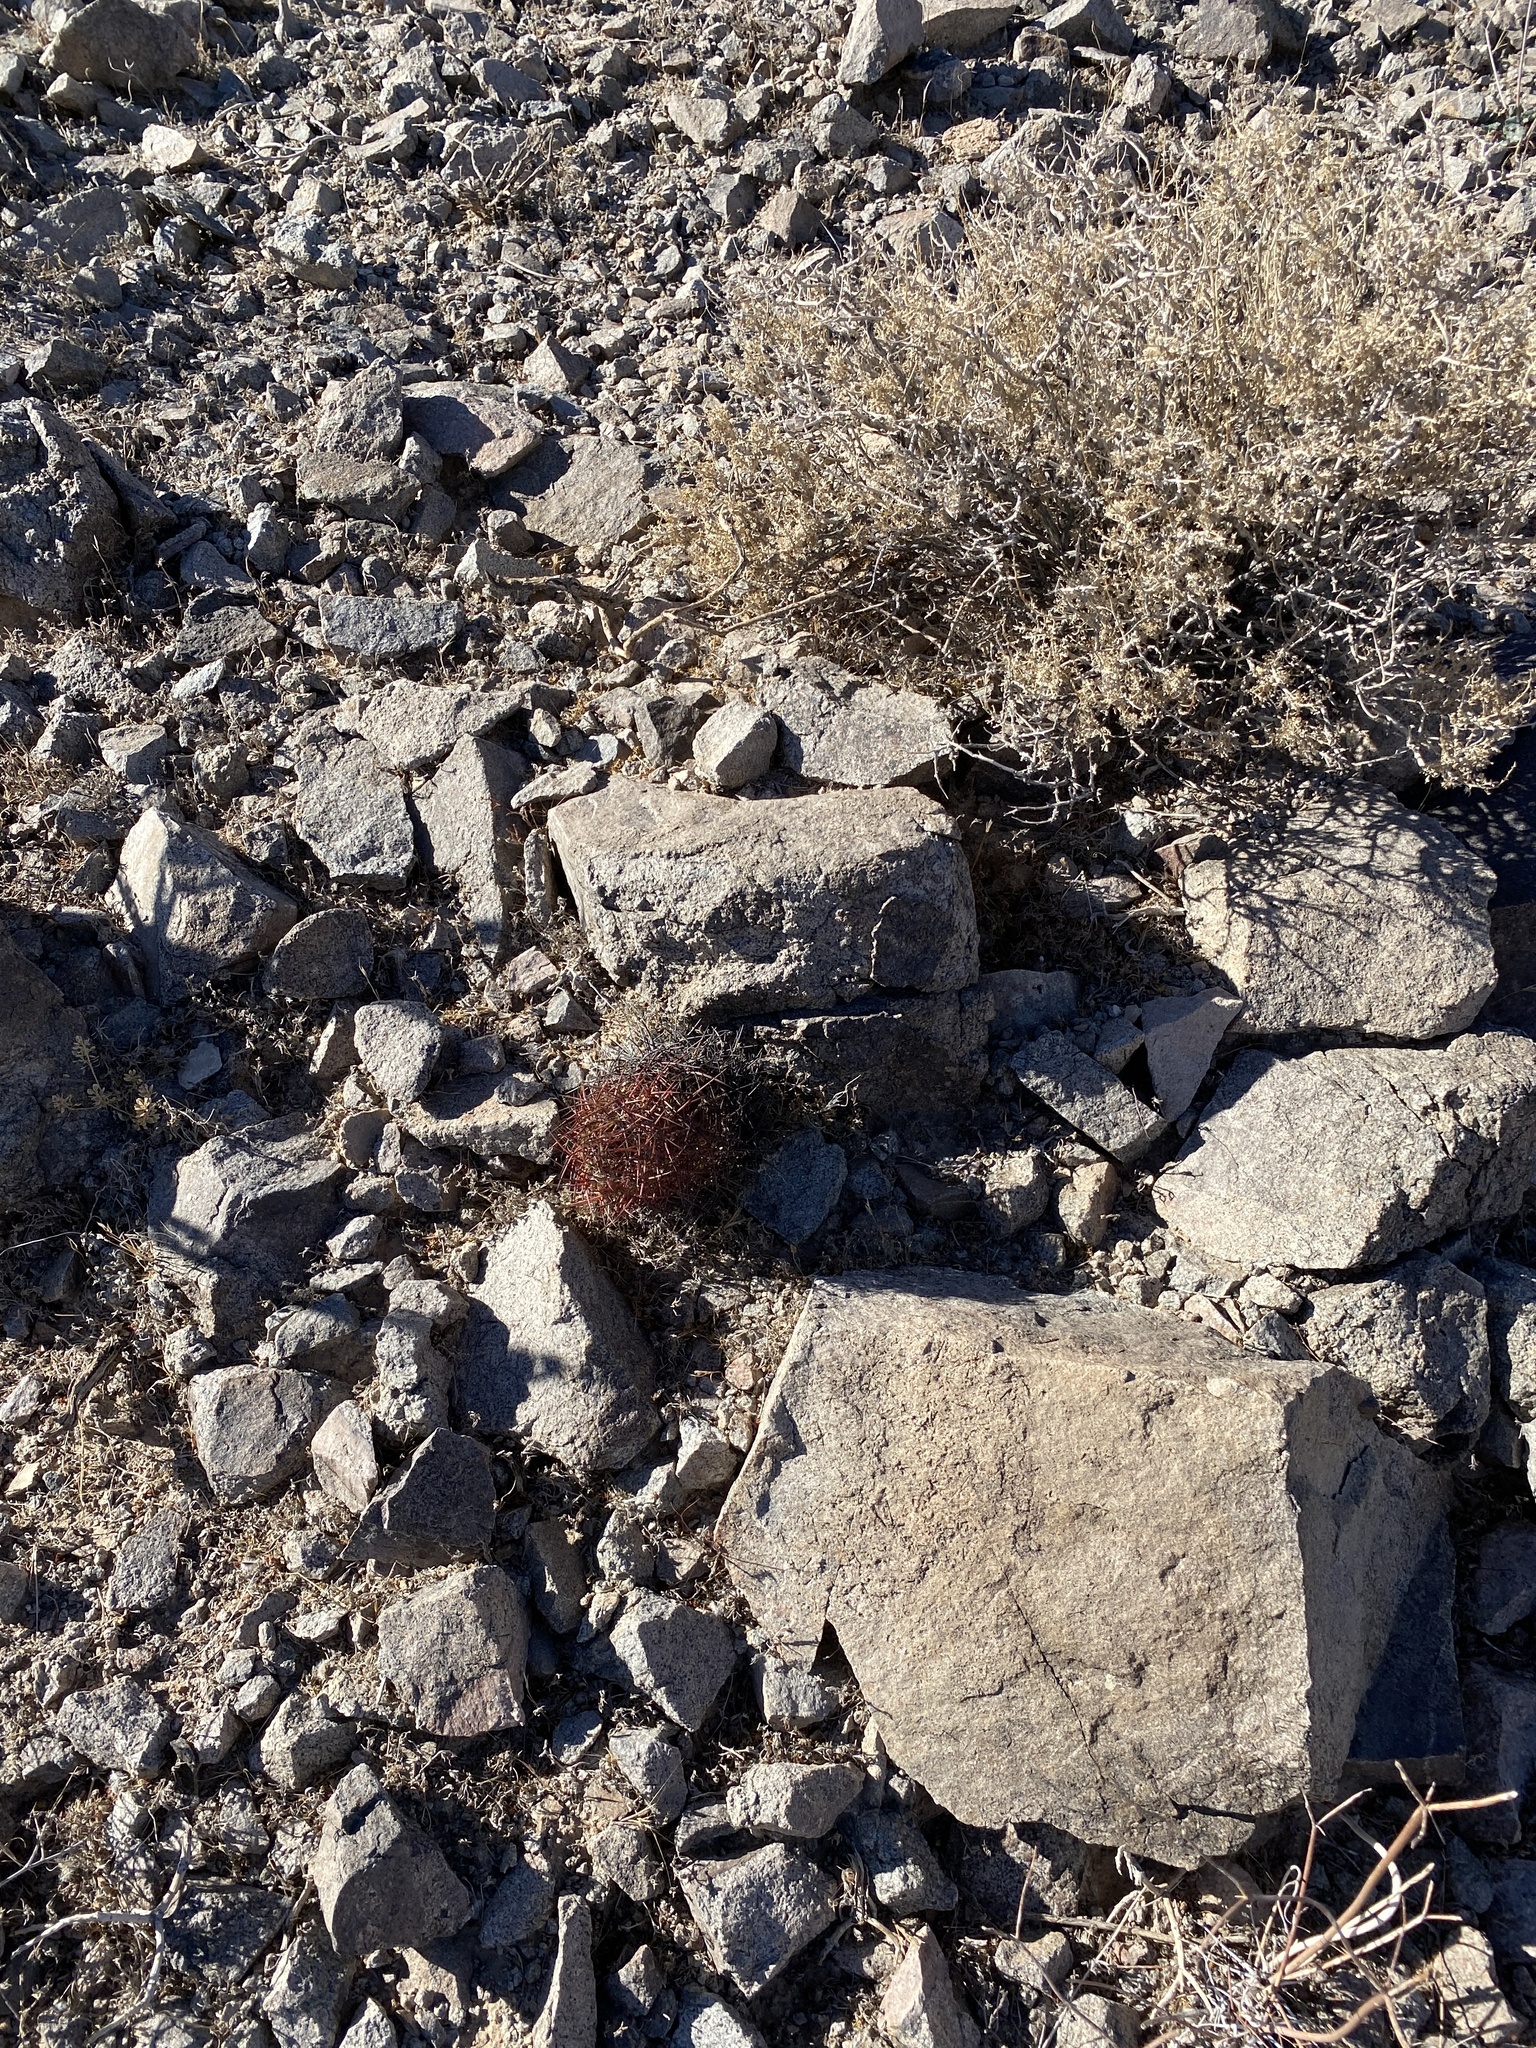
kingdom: Plantae
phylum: Tracheophyta
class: Magnoliopsida
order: Caryophyllales
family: Cactaceae
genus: Sclerocactus
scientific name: Sclerocactus johnsonii
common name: Eight-spine fishhook cactus
